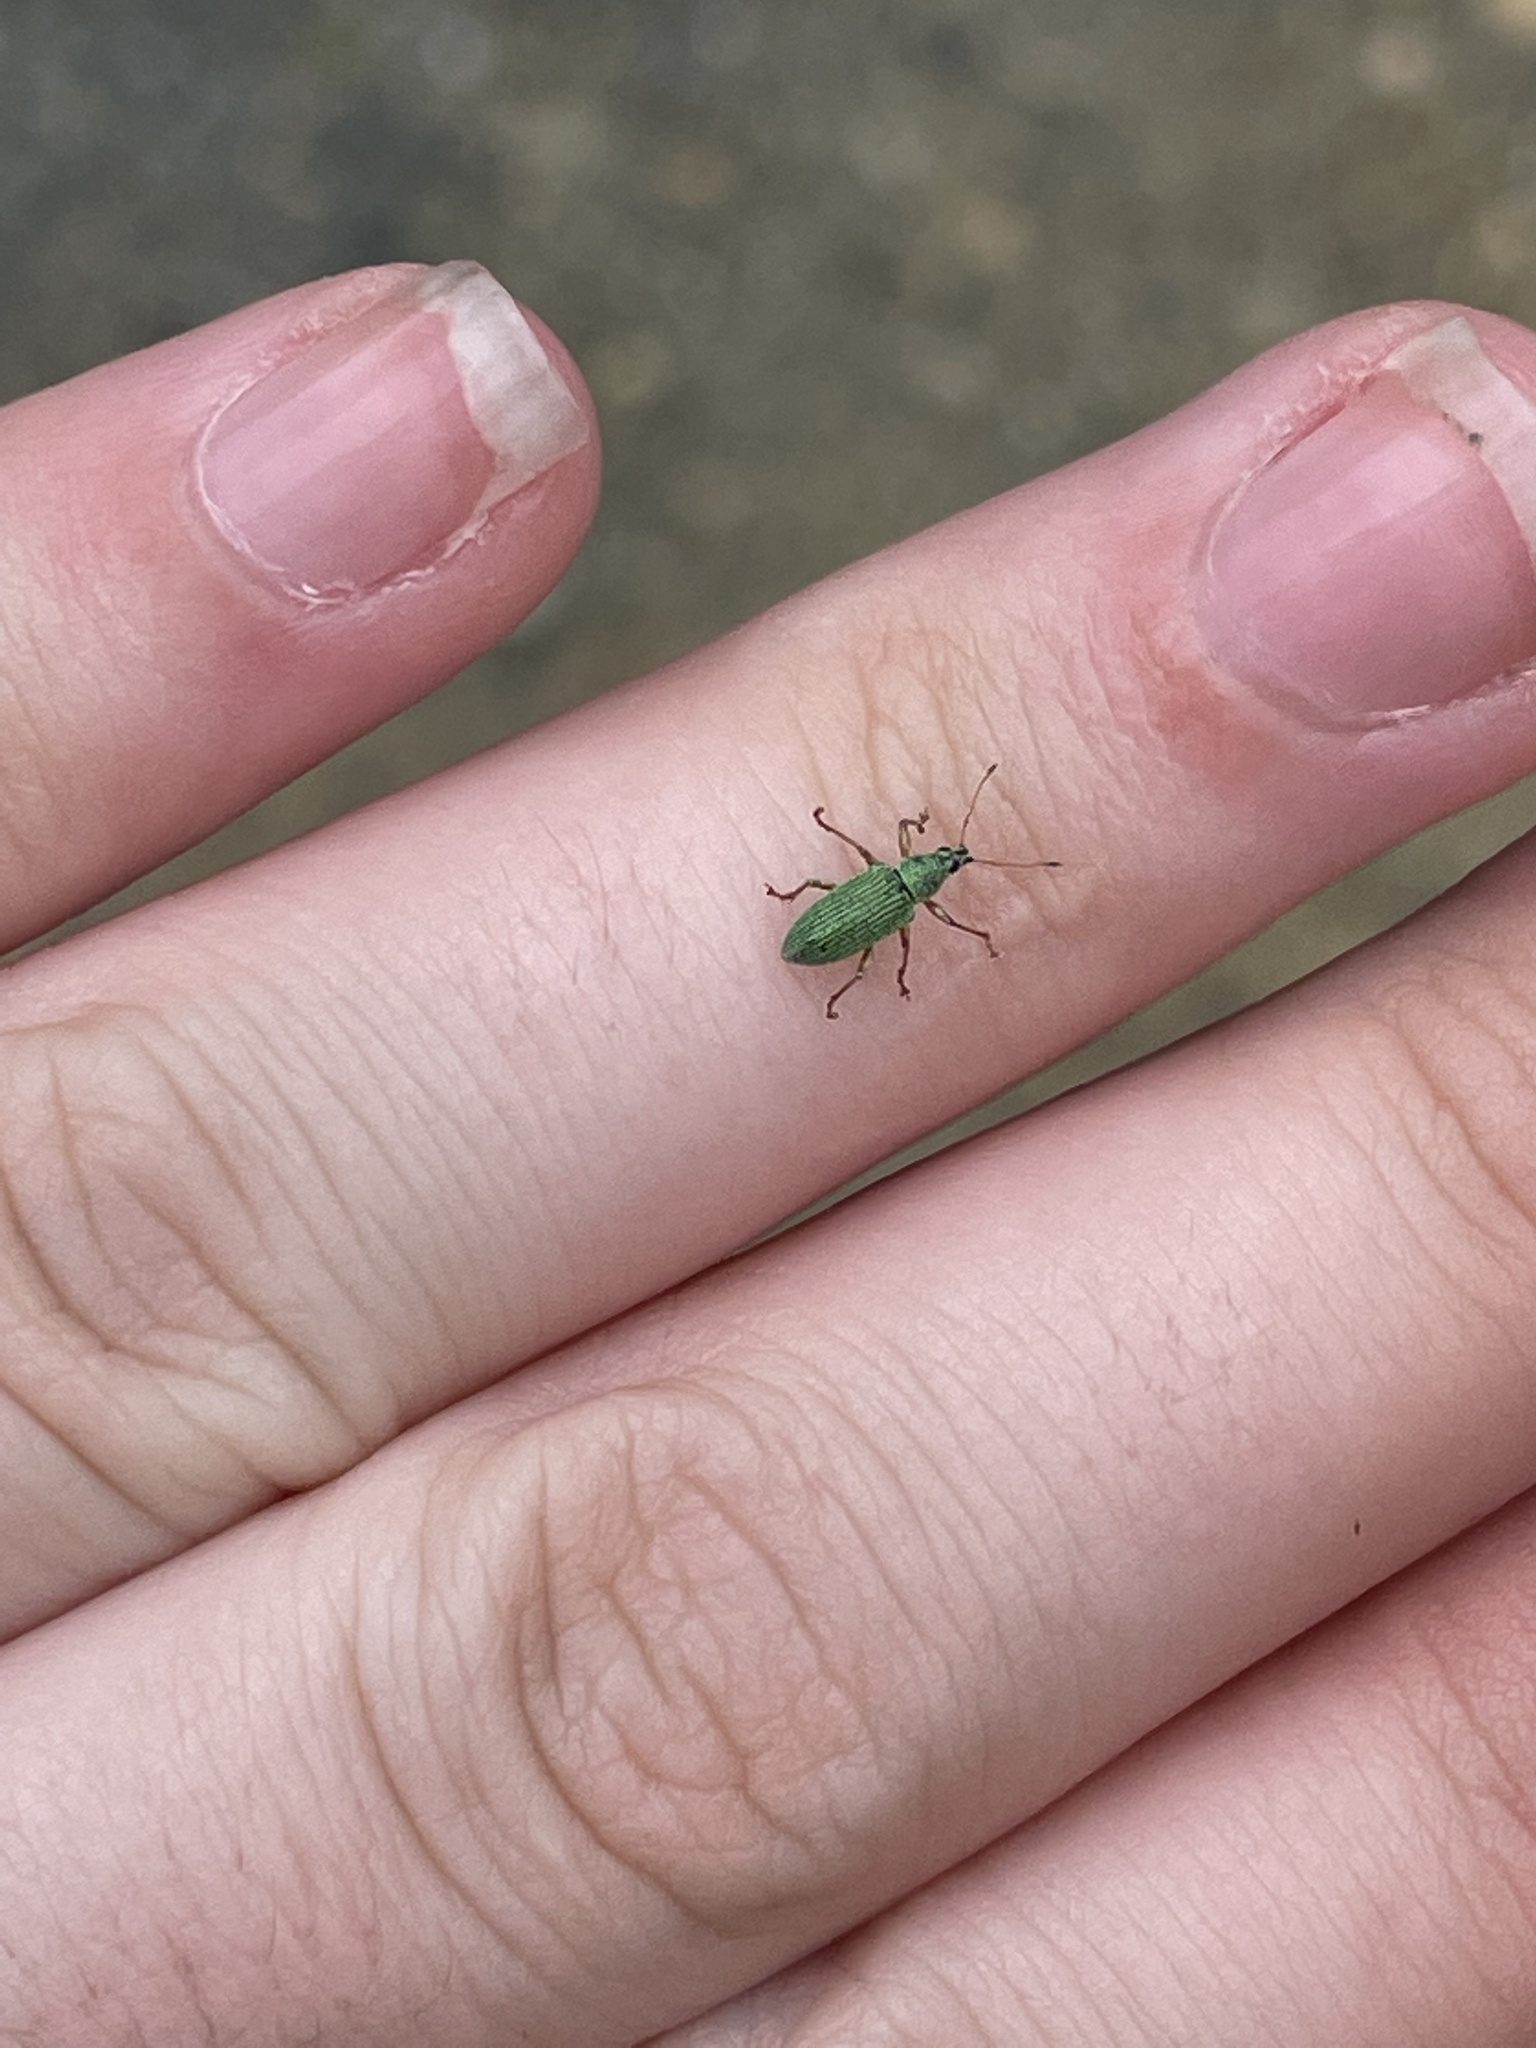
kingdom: Animalia
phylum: Arthropoda
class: Insecta
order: Coleoptera
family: Curculionidae
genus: Polydrusus
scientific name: Polydrusus formosus
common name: Weevil
